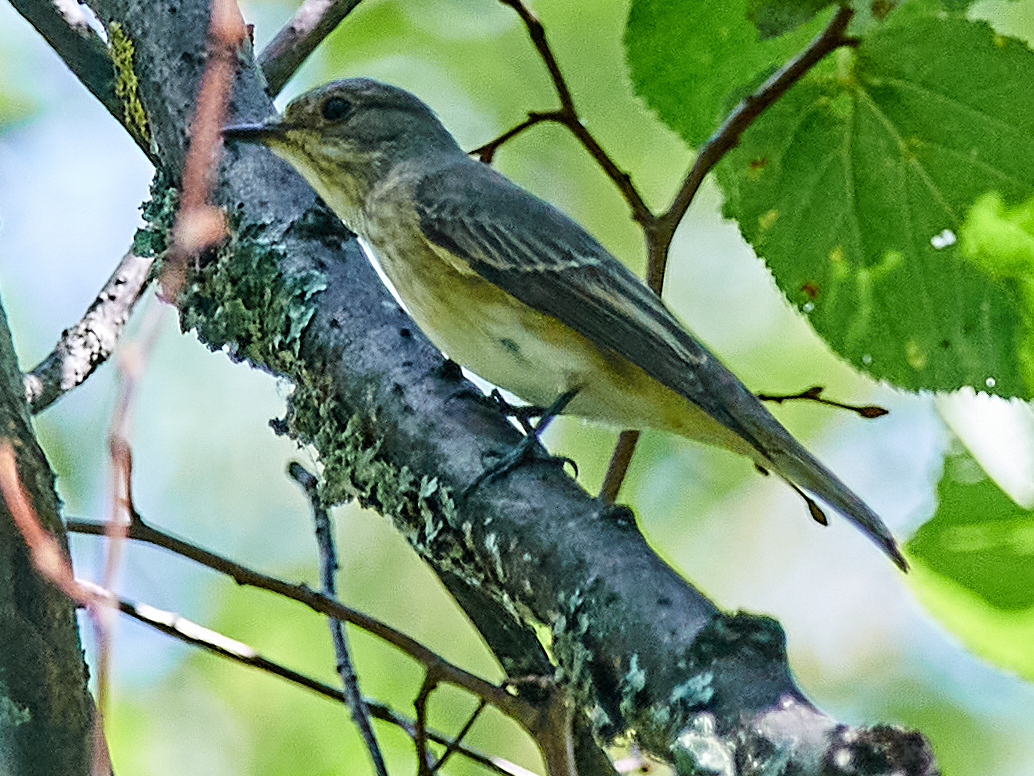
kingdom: Animalia
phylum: Chordata
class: Aves
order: Passeriformes
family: Muscicapidae
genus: Muscicapa
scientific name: Muscicapa striata
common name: Spotted flycatcher
